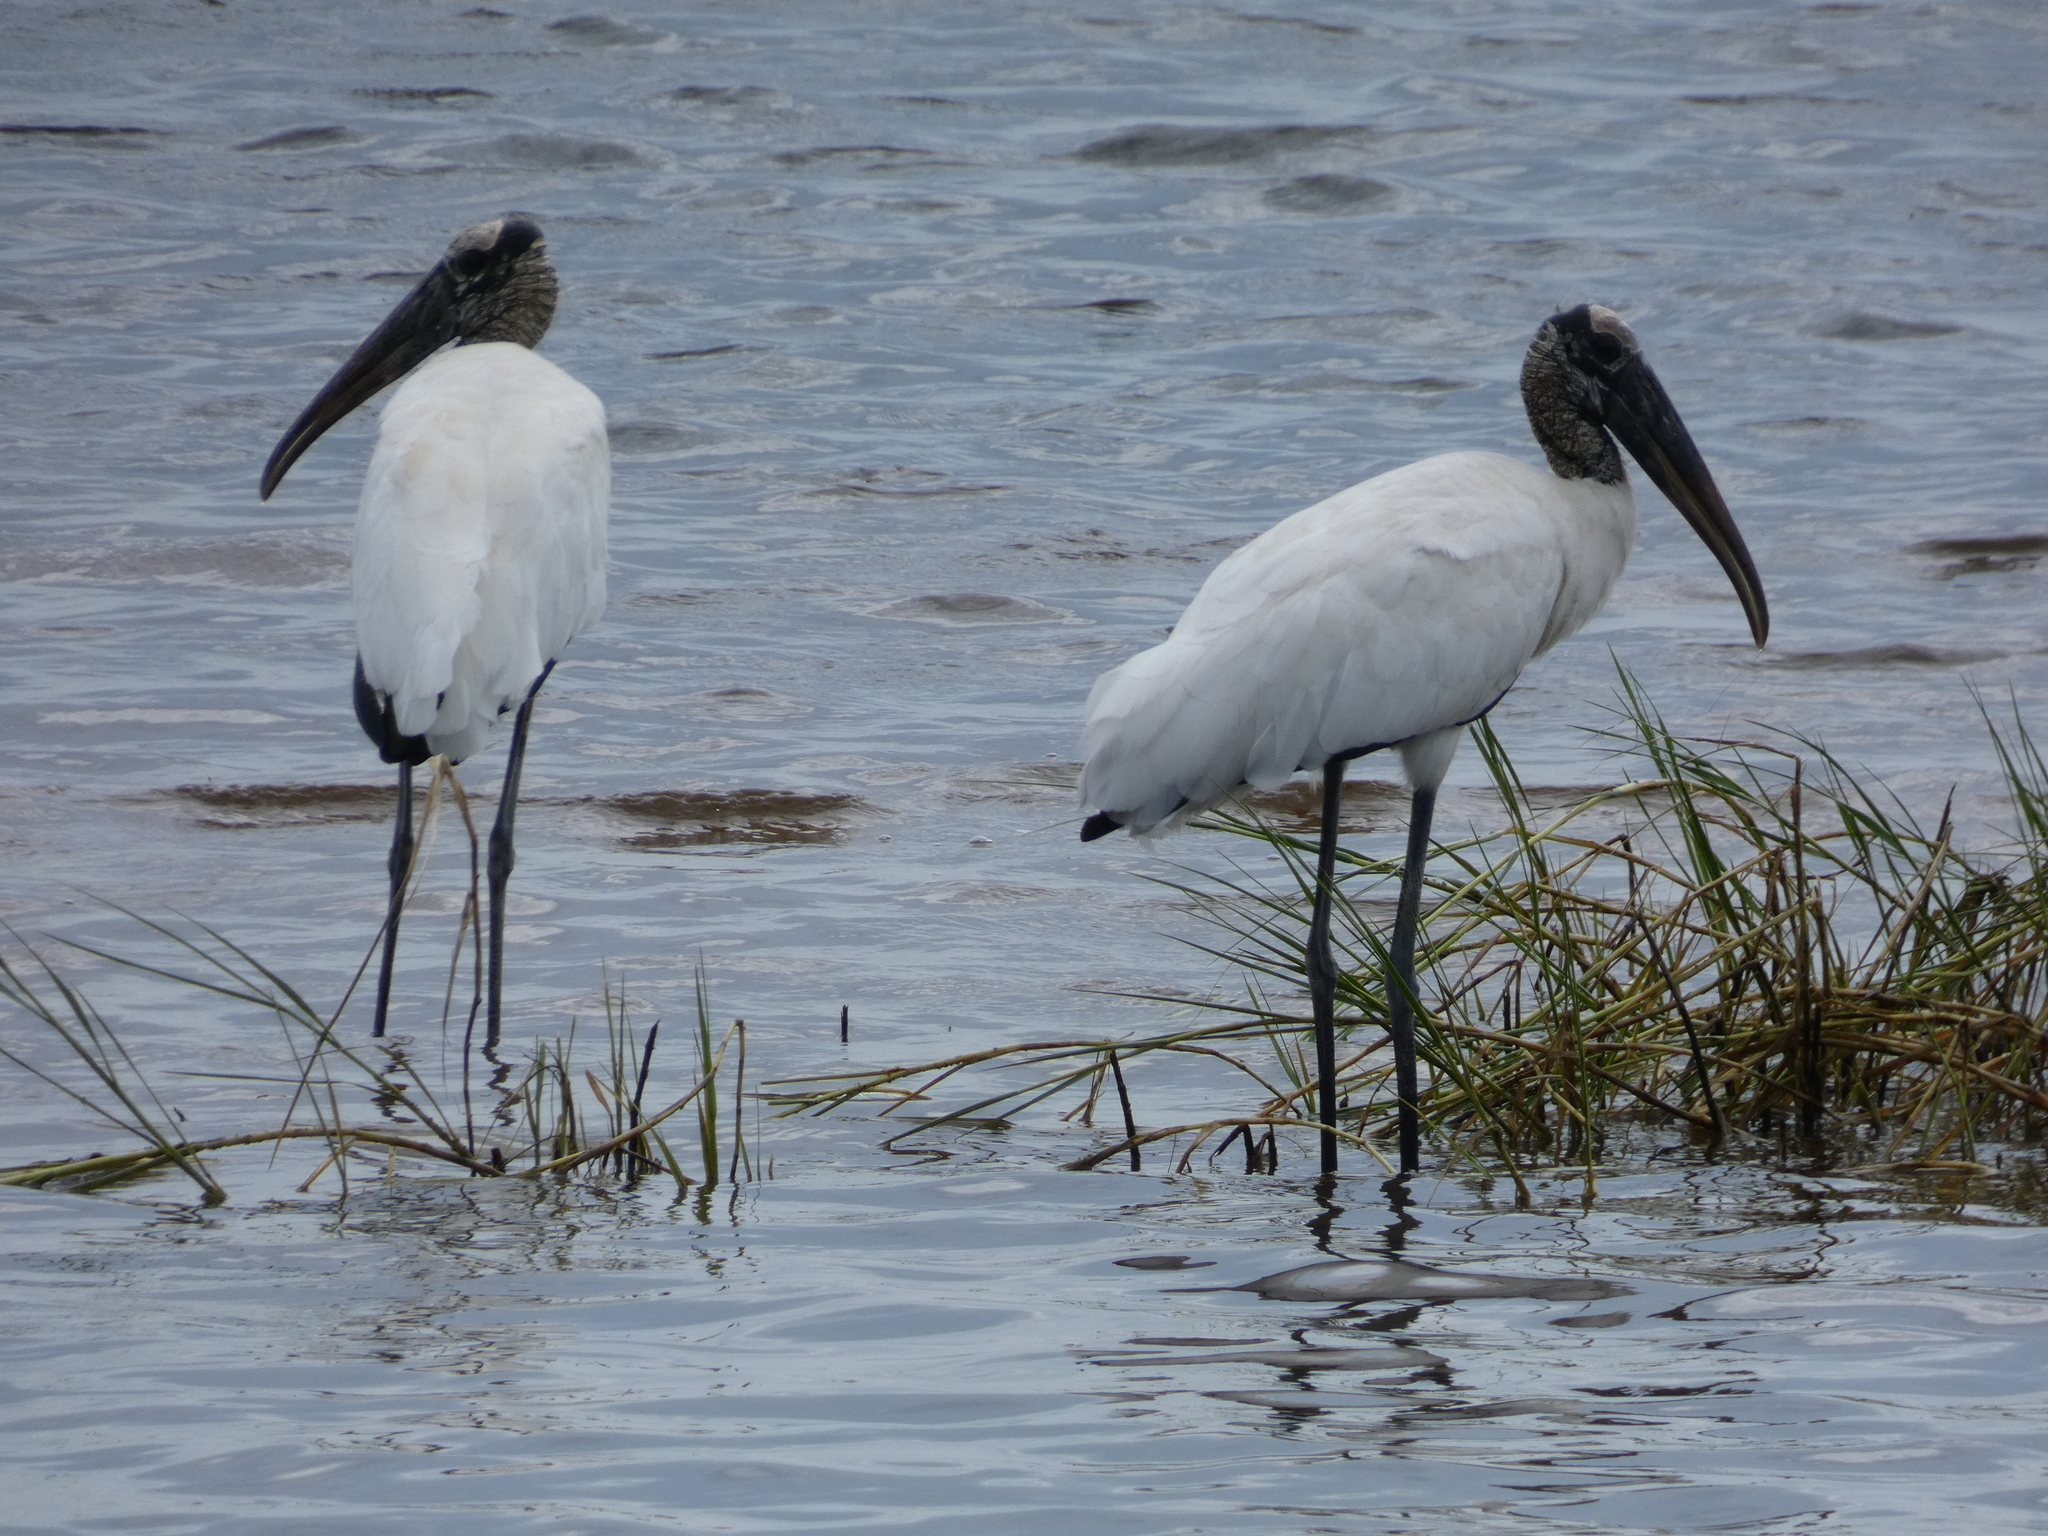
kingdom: Animalia
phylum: Chordata
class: Aves
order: Ciconiiformes
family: Ciconiidae
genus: Mycteria
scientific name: Mycteria americana
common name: Wood stork
